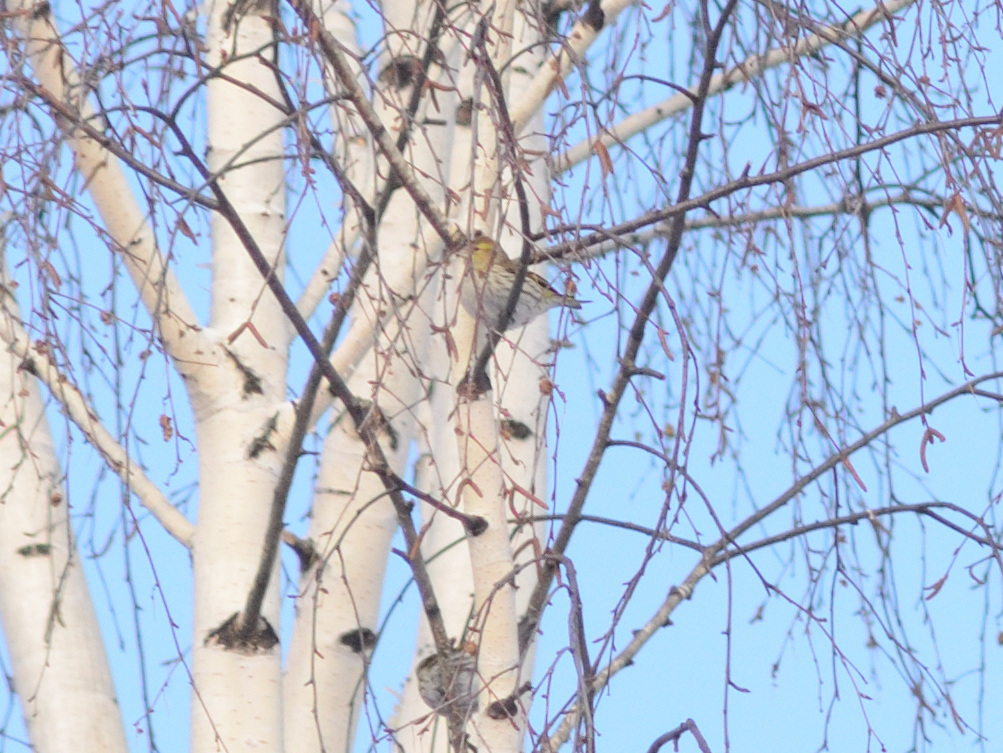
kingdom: Animalia
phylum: Chordata
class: Aves
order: Passeriformes
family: Fringillidae
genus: Spinus
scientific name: Spinus spinus
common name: Eurasian siskin
